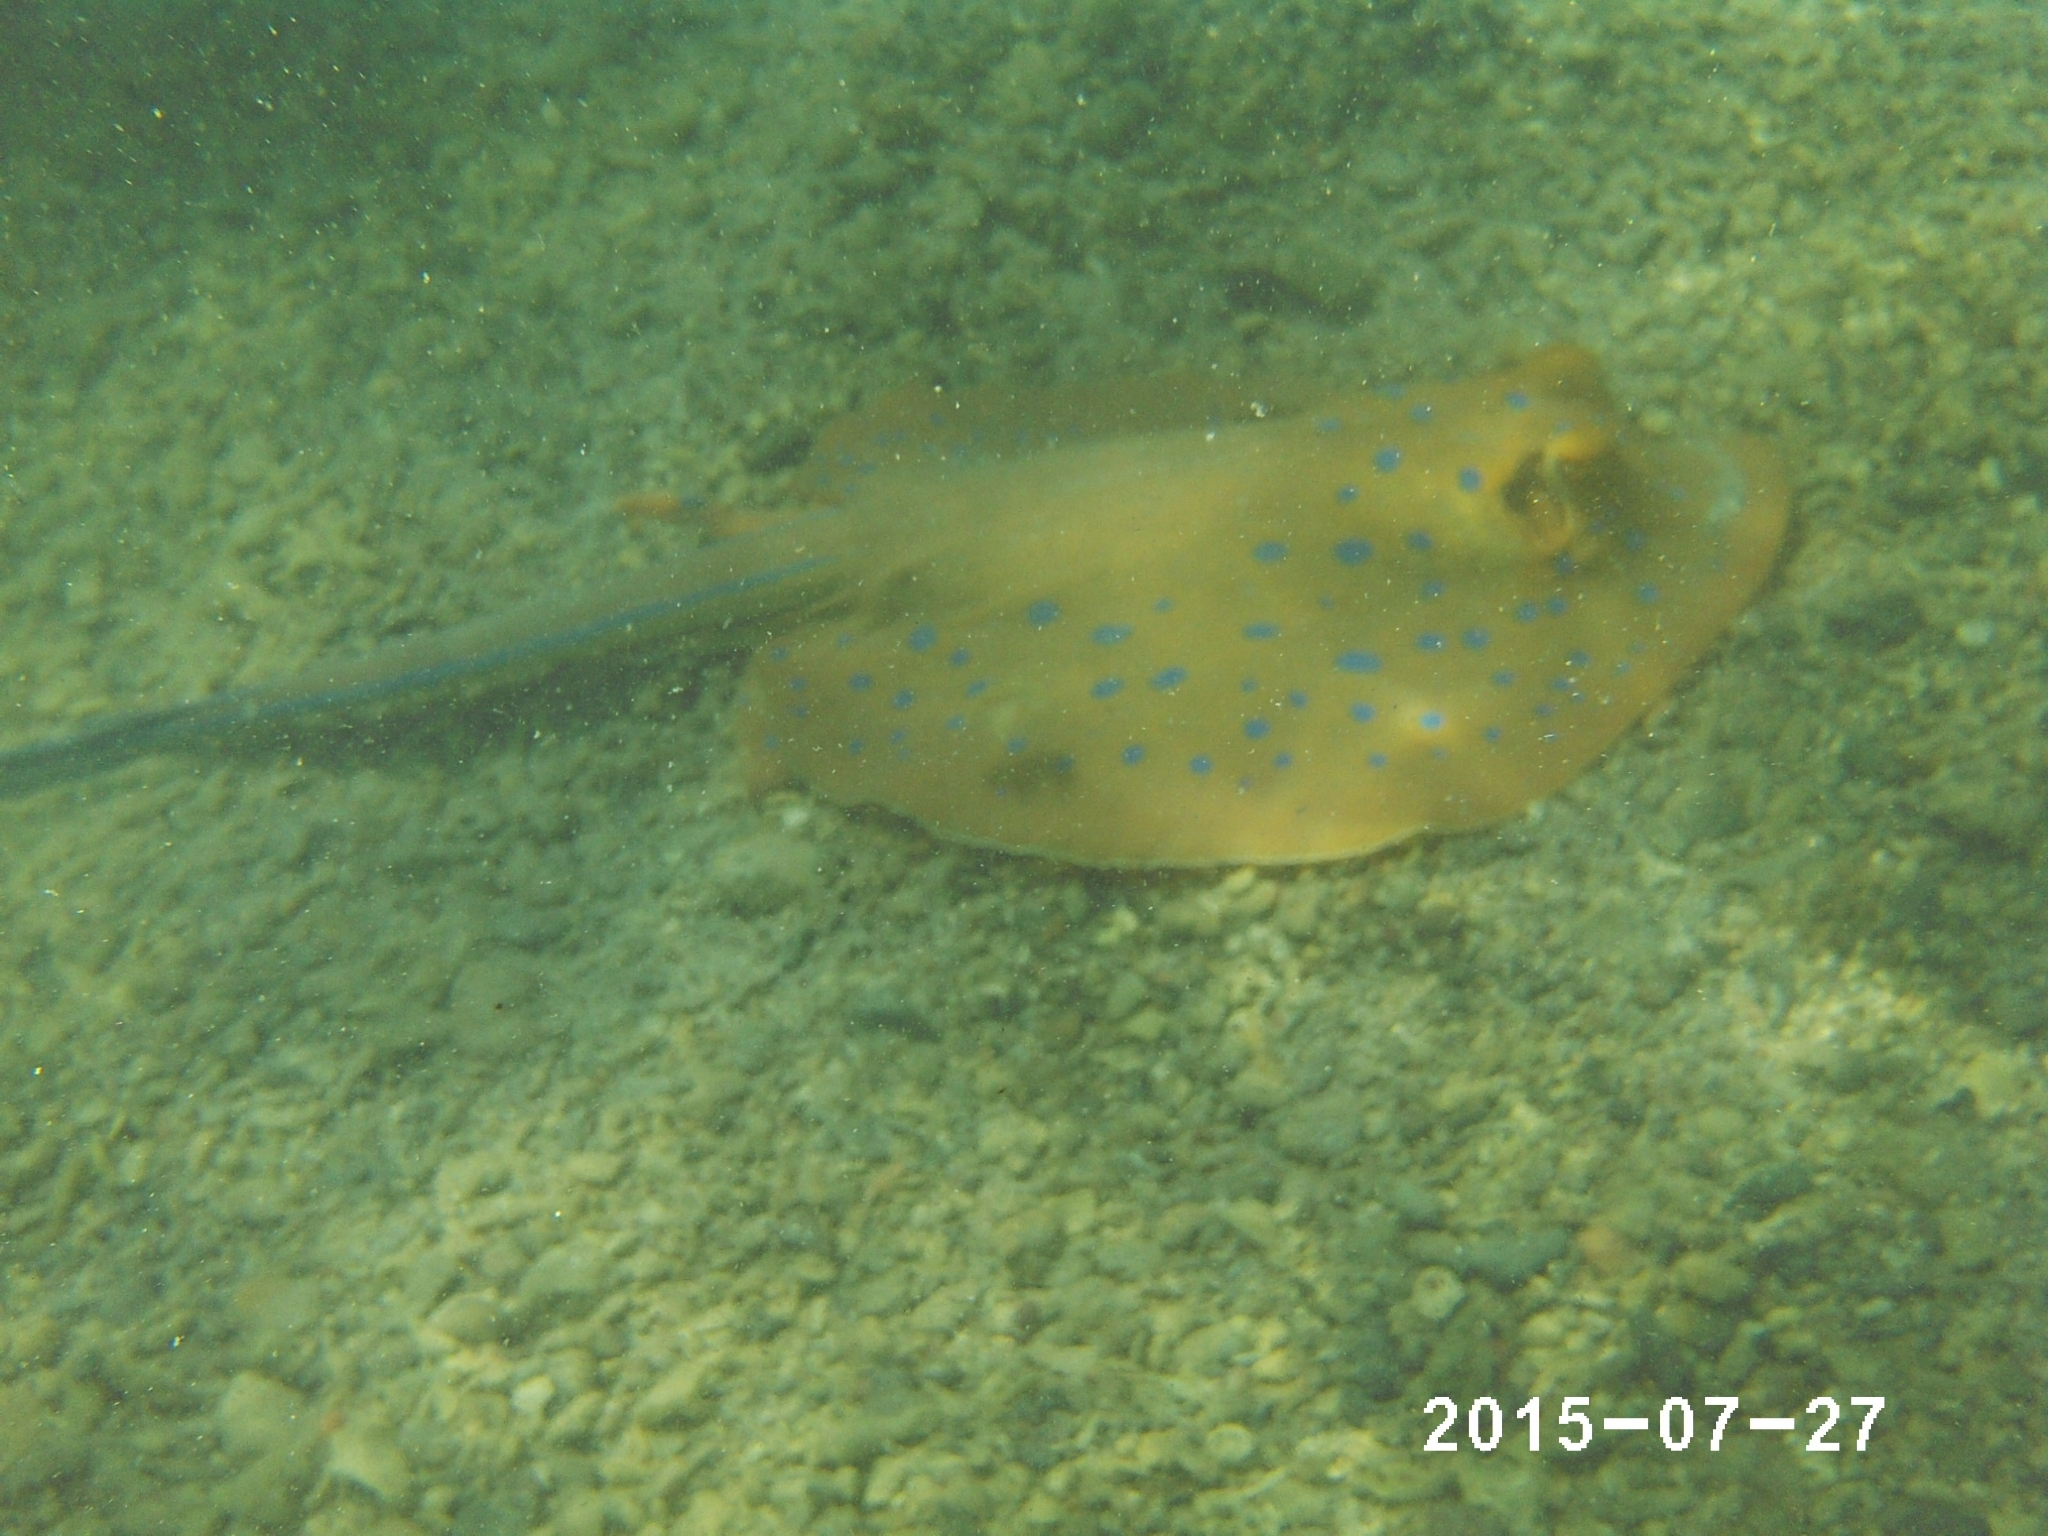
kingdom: Animalia
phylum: Chordata
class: Elasmobranchii
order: Myliobatiformes
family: Dasyatidae
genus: Taeniura
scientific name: Taeniura lymma
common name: Bluespotted ribbontail ray
